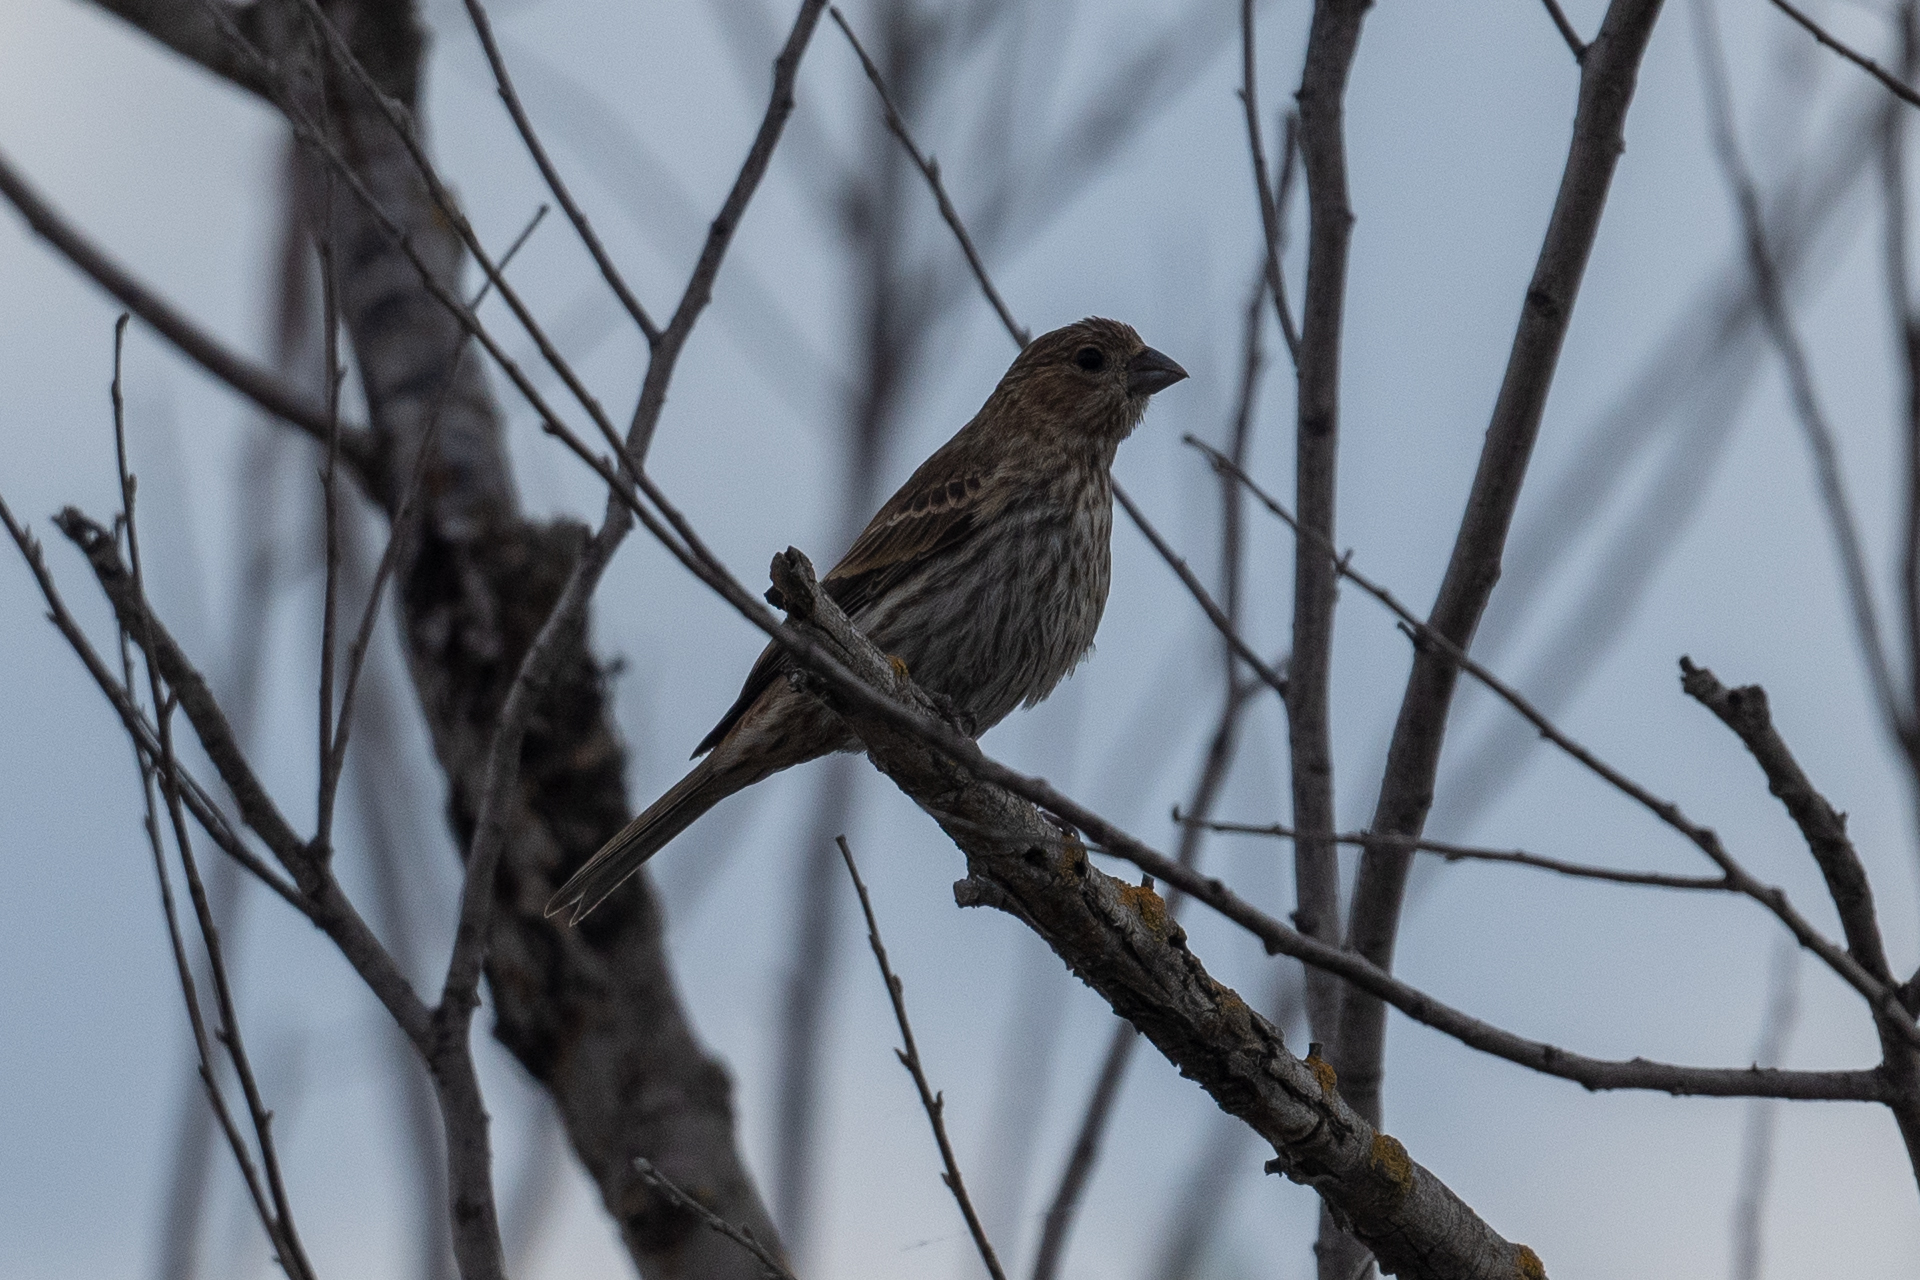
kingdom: Animalia
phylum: Chordata
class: Aves
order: Passeriformes
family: Fringillidae
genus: Haemorhous
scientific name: Haemorhous mexicanus
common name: House finch
